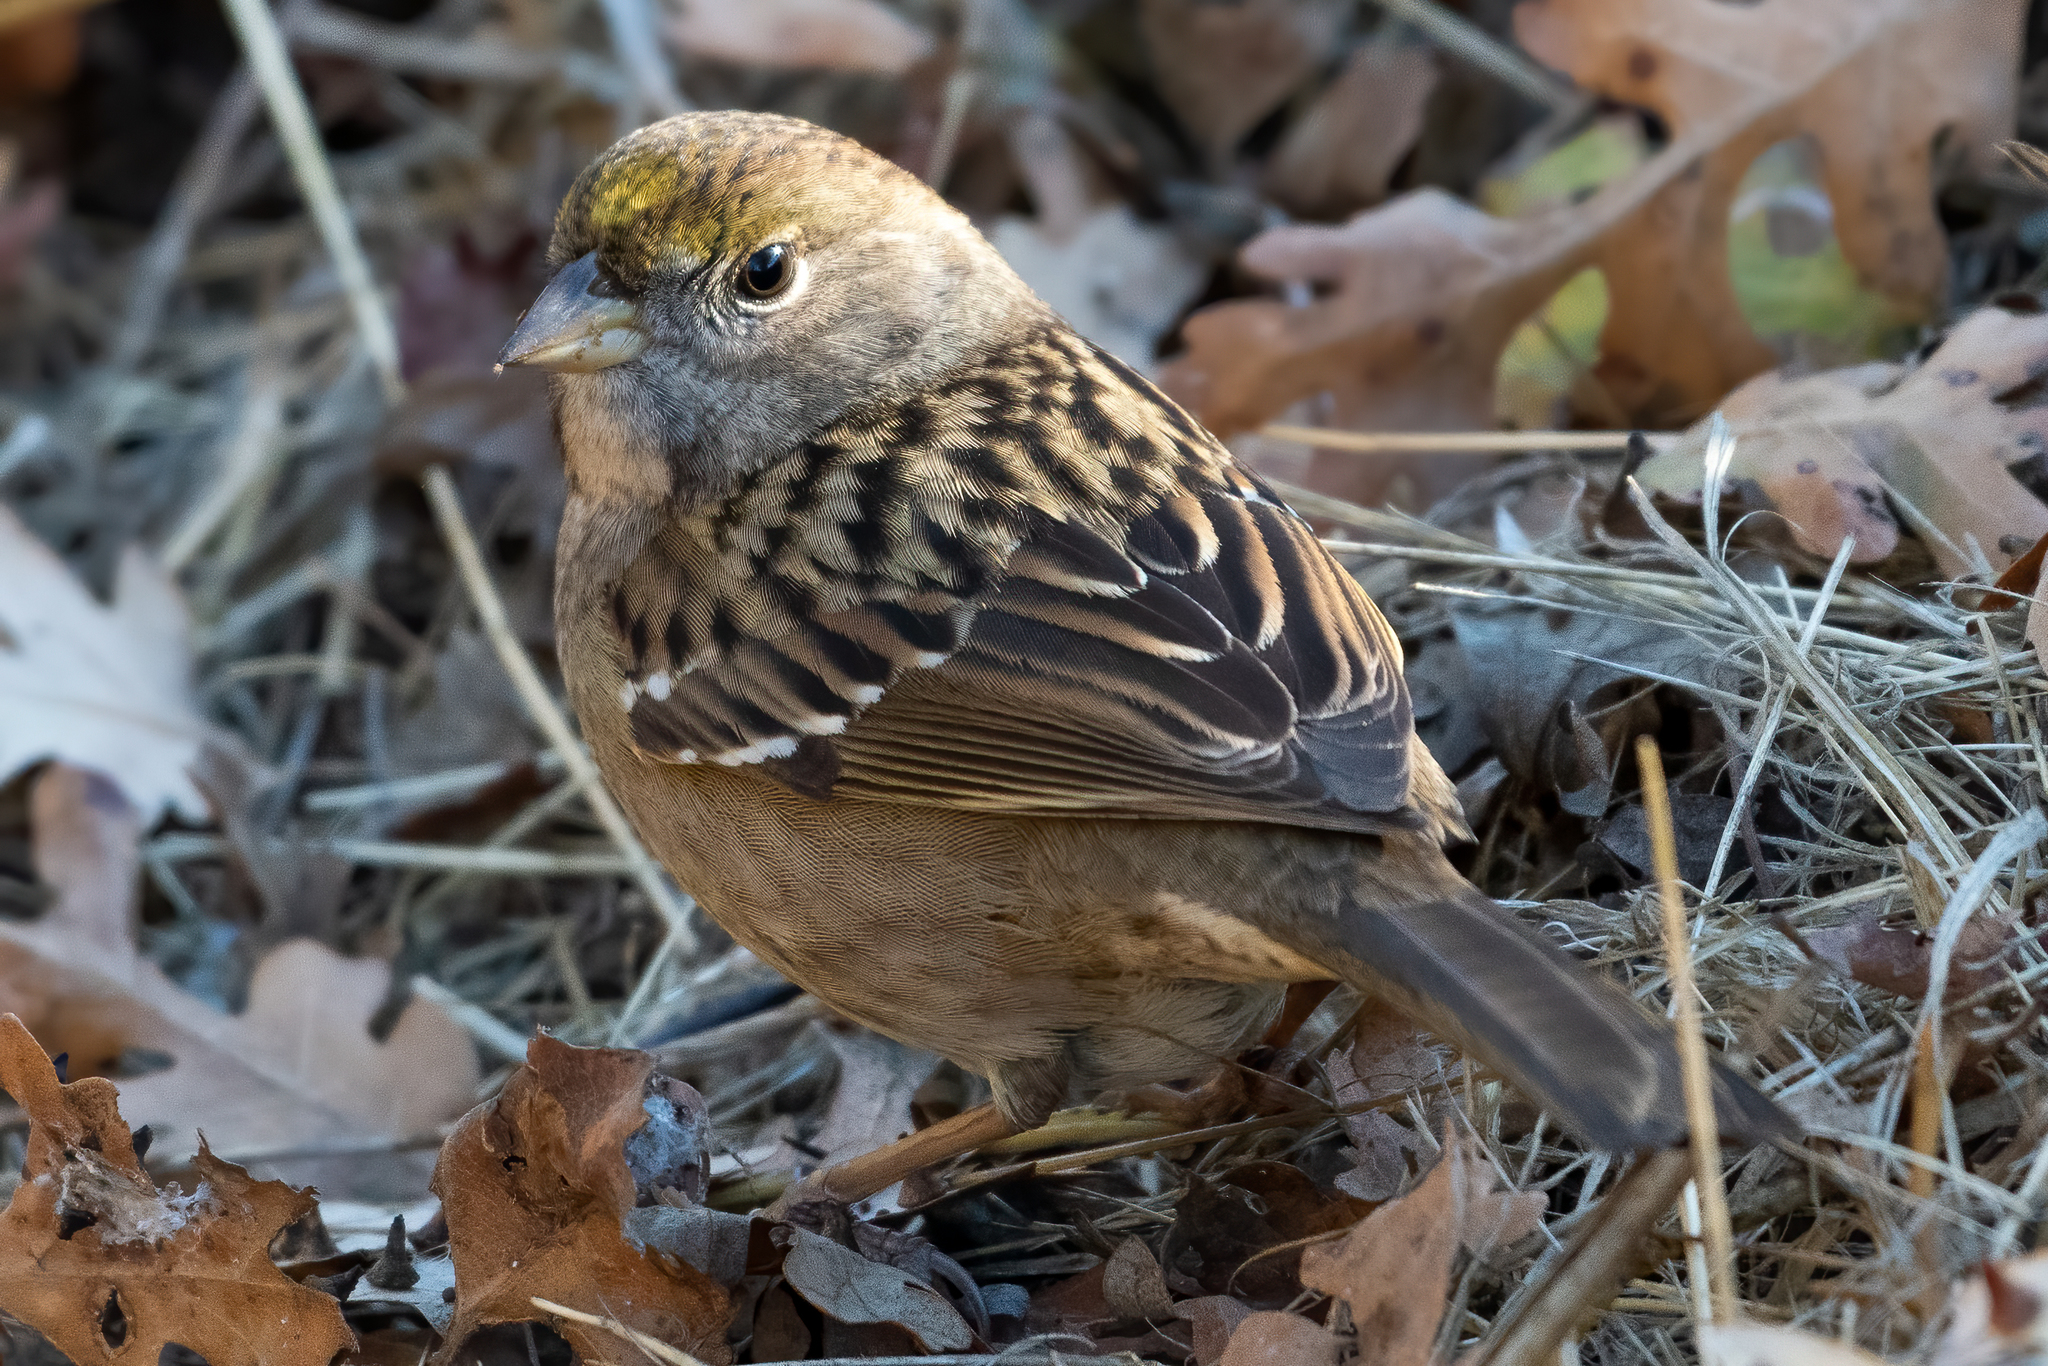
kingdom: Animalia
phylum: Chordata
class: Aves
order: Passeriformes
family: Passerellidae
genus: Zonotrichia
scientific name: Zonotrichia atricapilla
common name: Golden-crowned sparrow
